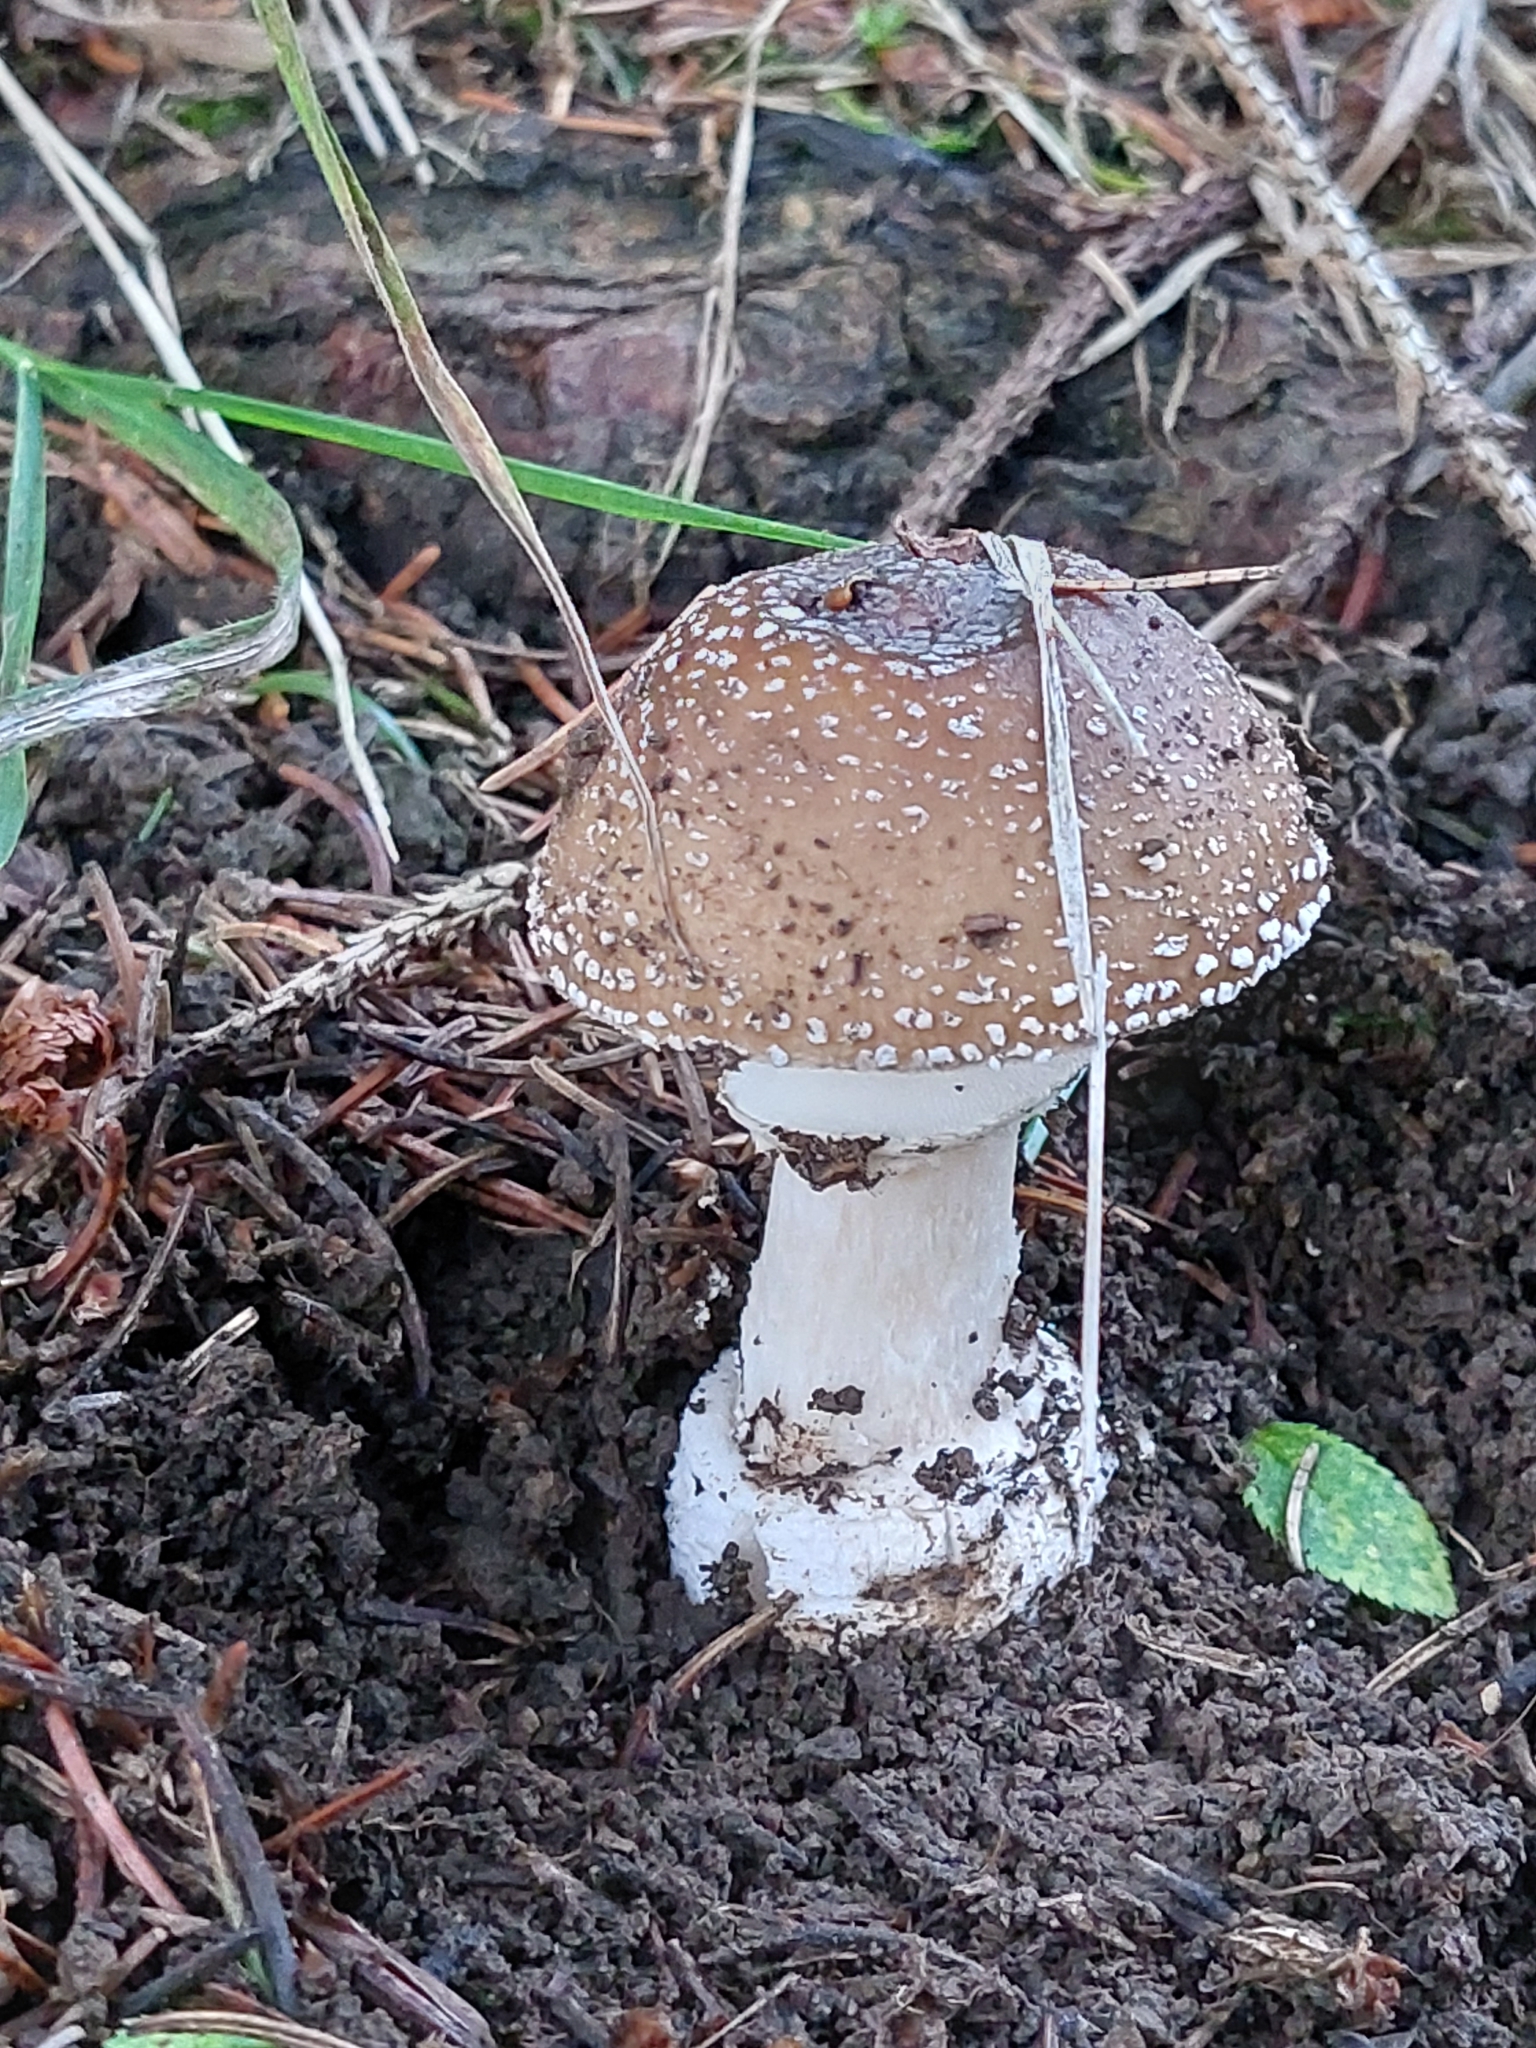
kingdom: Fungi
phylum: Basidiomycota
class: Agaricomycetes
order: Agaricales
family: Amanitaceae
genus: Amanita
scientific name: Amanita pantherina
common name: Panthercap
